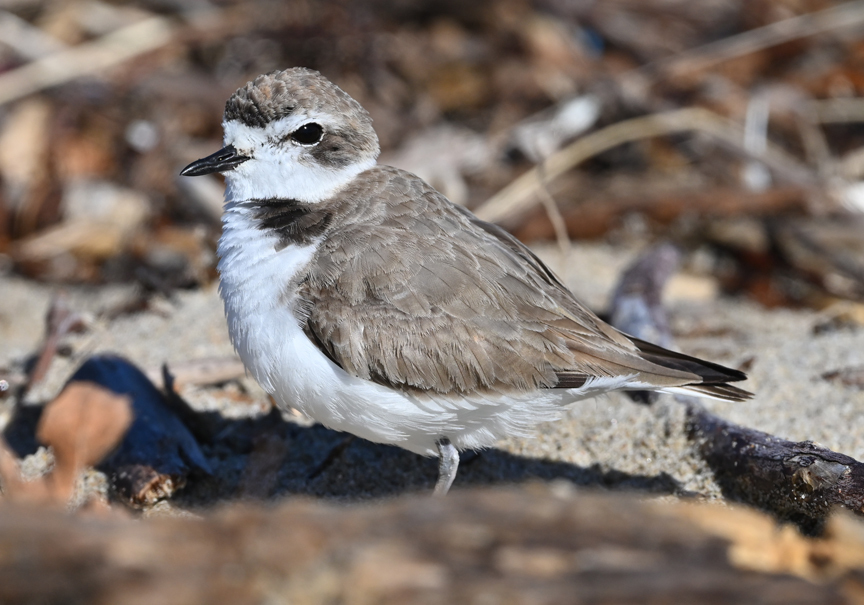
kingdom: Animalia
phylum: Chordata
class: Aves
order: Charadriiformes
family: Charadriidae
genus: Anarhynchus
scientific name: Anarhynchus
